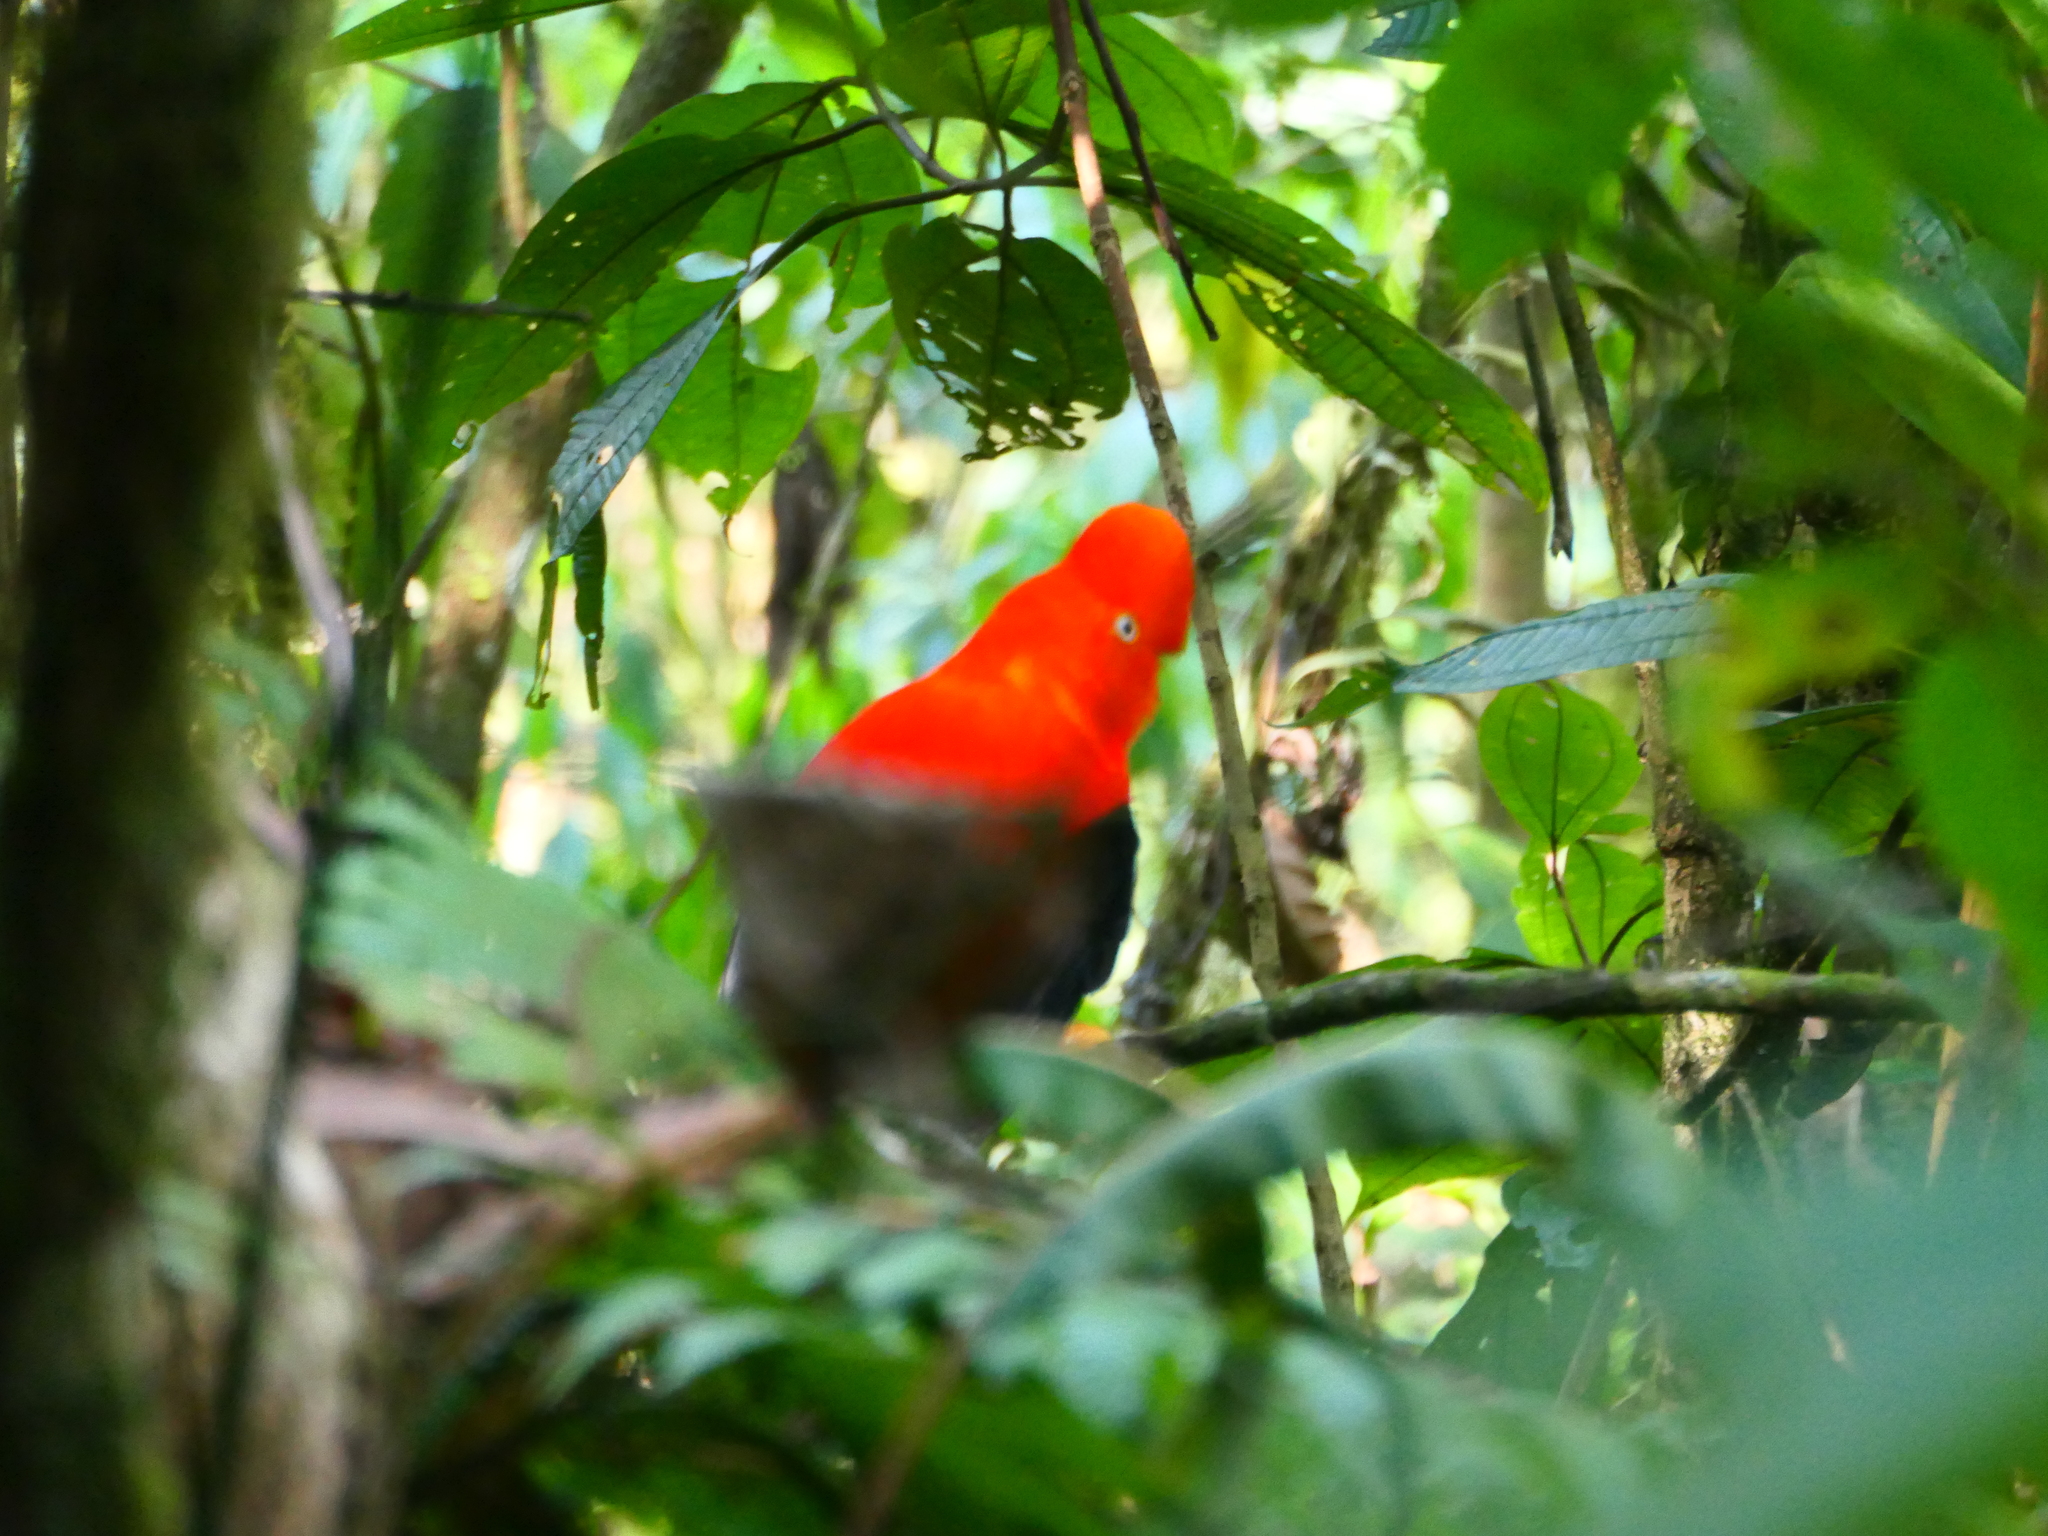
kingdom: Animalia
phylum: Chordata
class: Aves
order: Passeriformes
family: Cotingidae
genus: Rupicola
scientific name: Rupicola peruvianus
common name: Andean cock-of-the-rock
